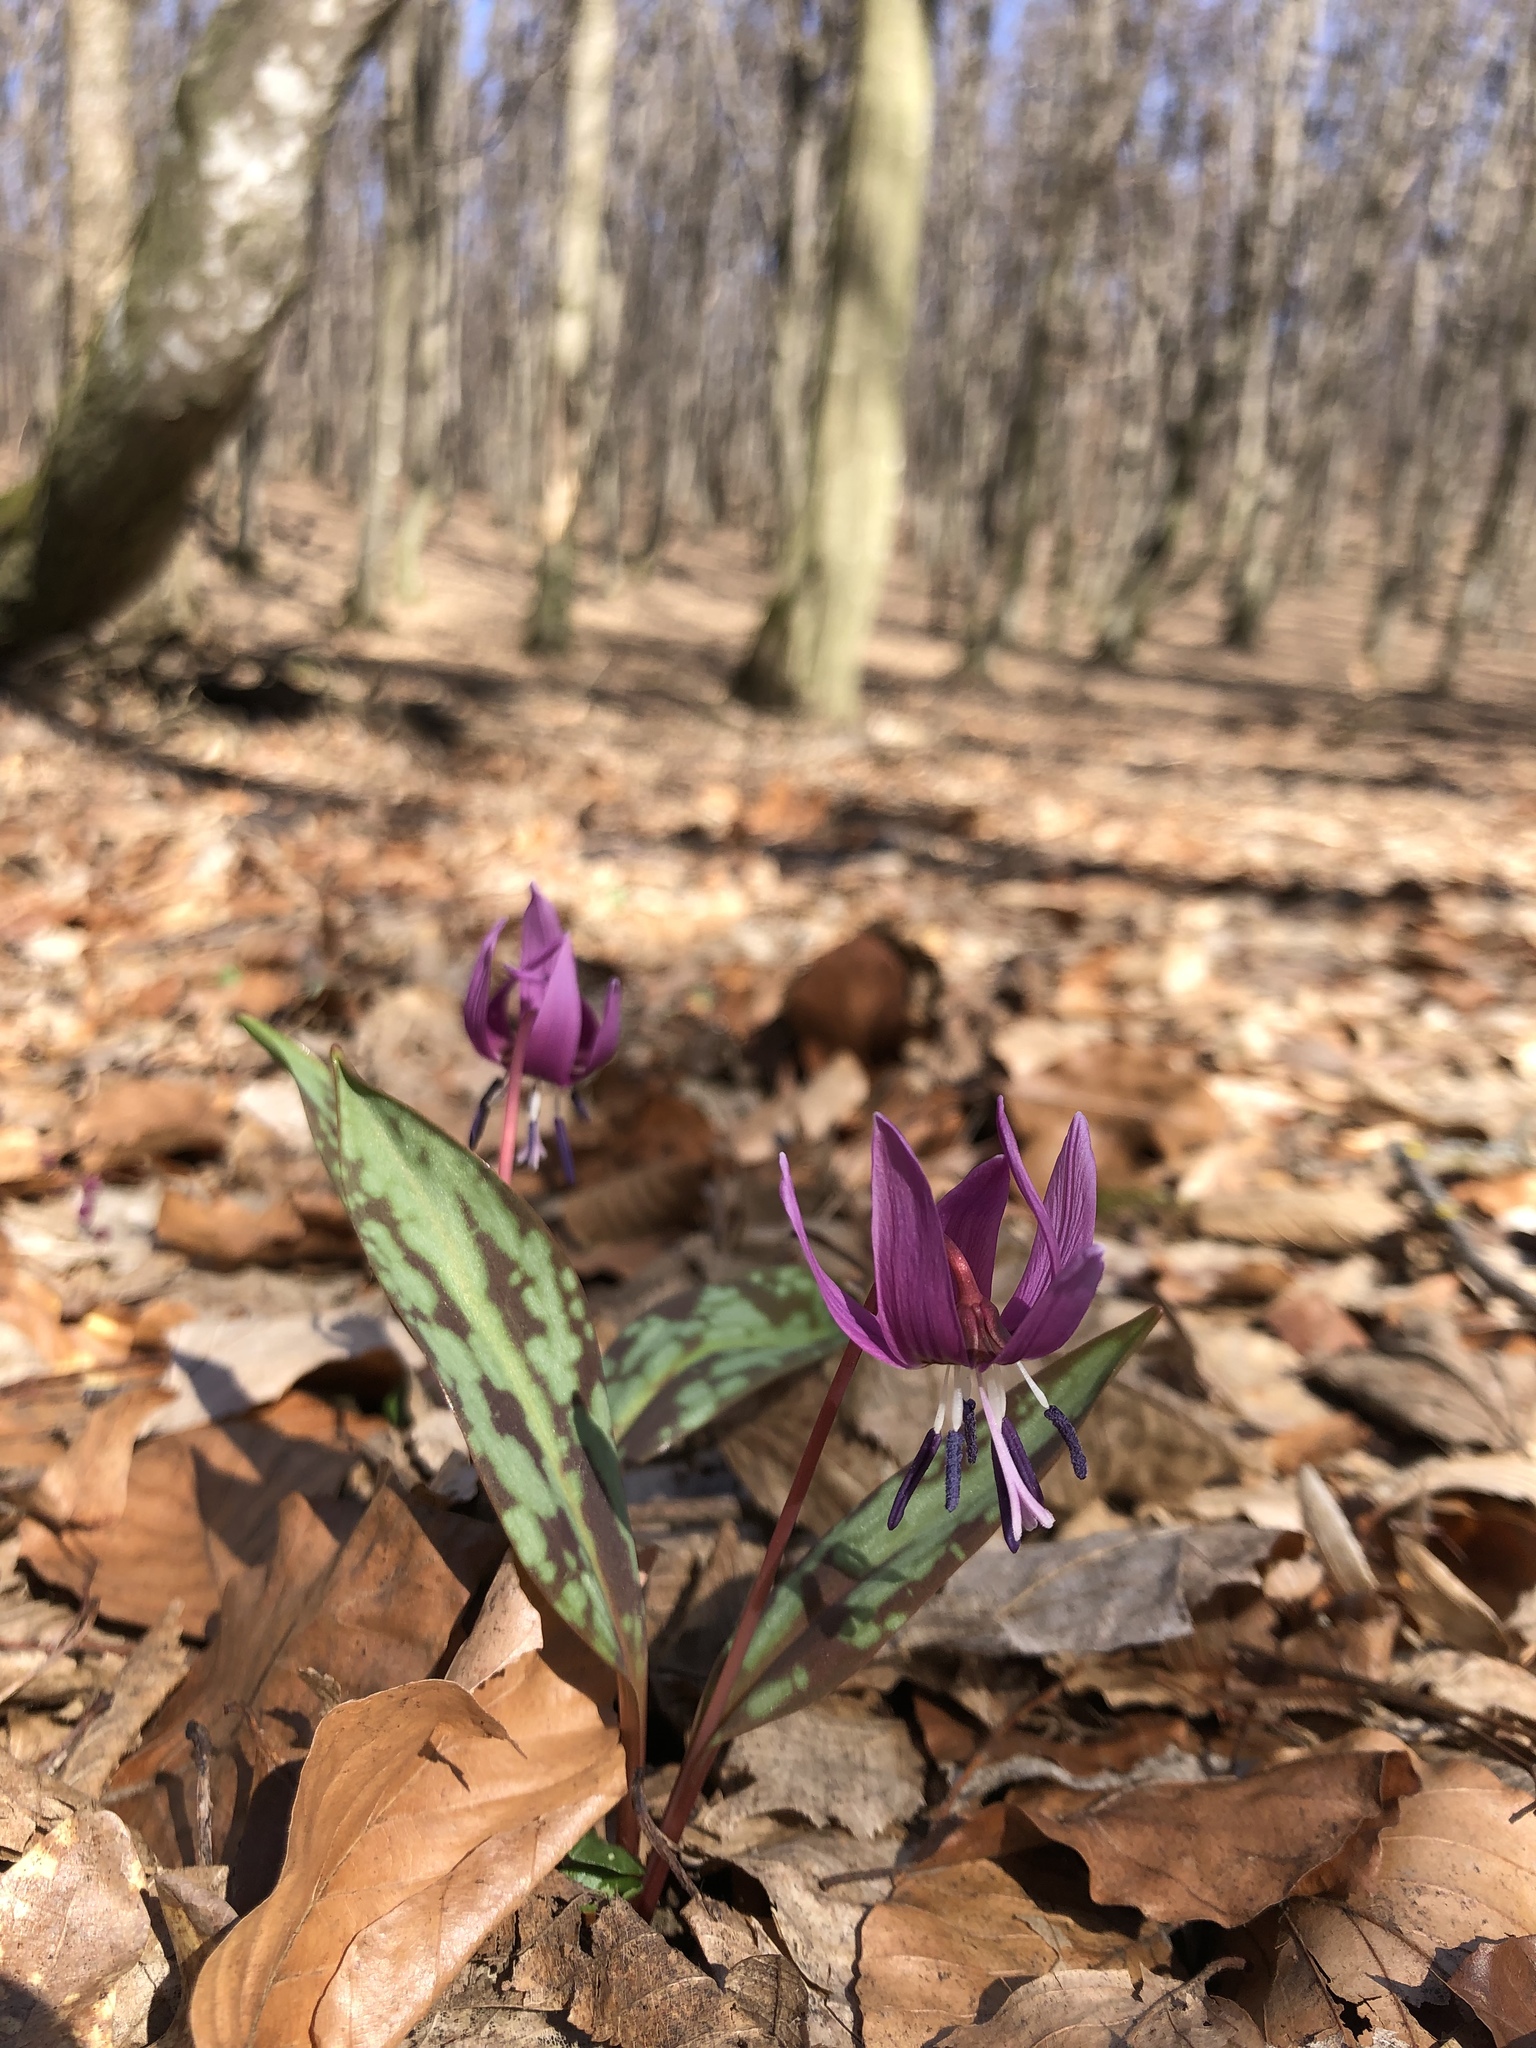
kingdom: Plantae
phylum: Tracheophyta
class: Liliopsida
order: Liliales
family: Liliaceae
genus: Erythronium
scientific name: Erythronium dens-canis
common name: Dog's-tooth-violet
